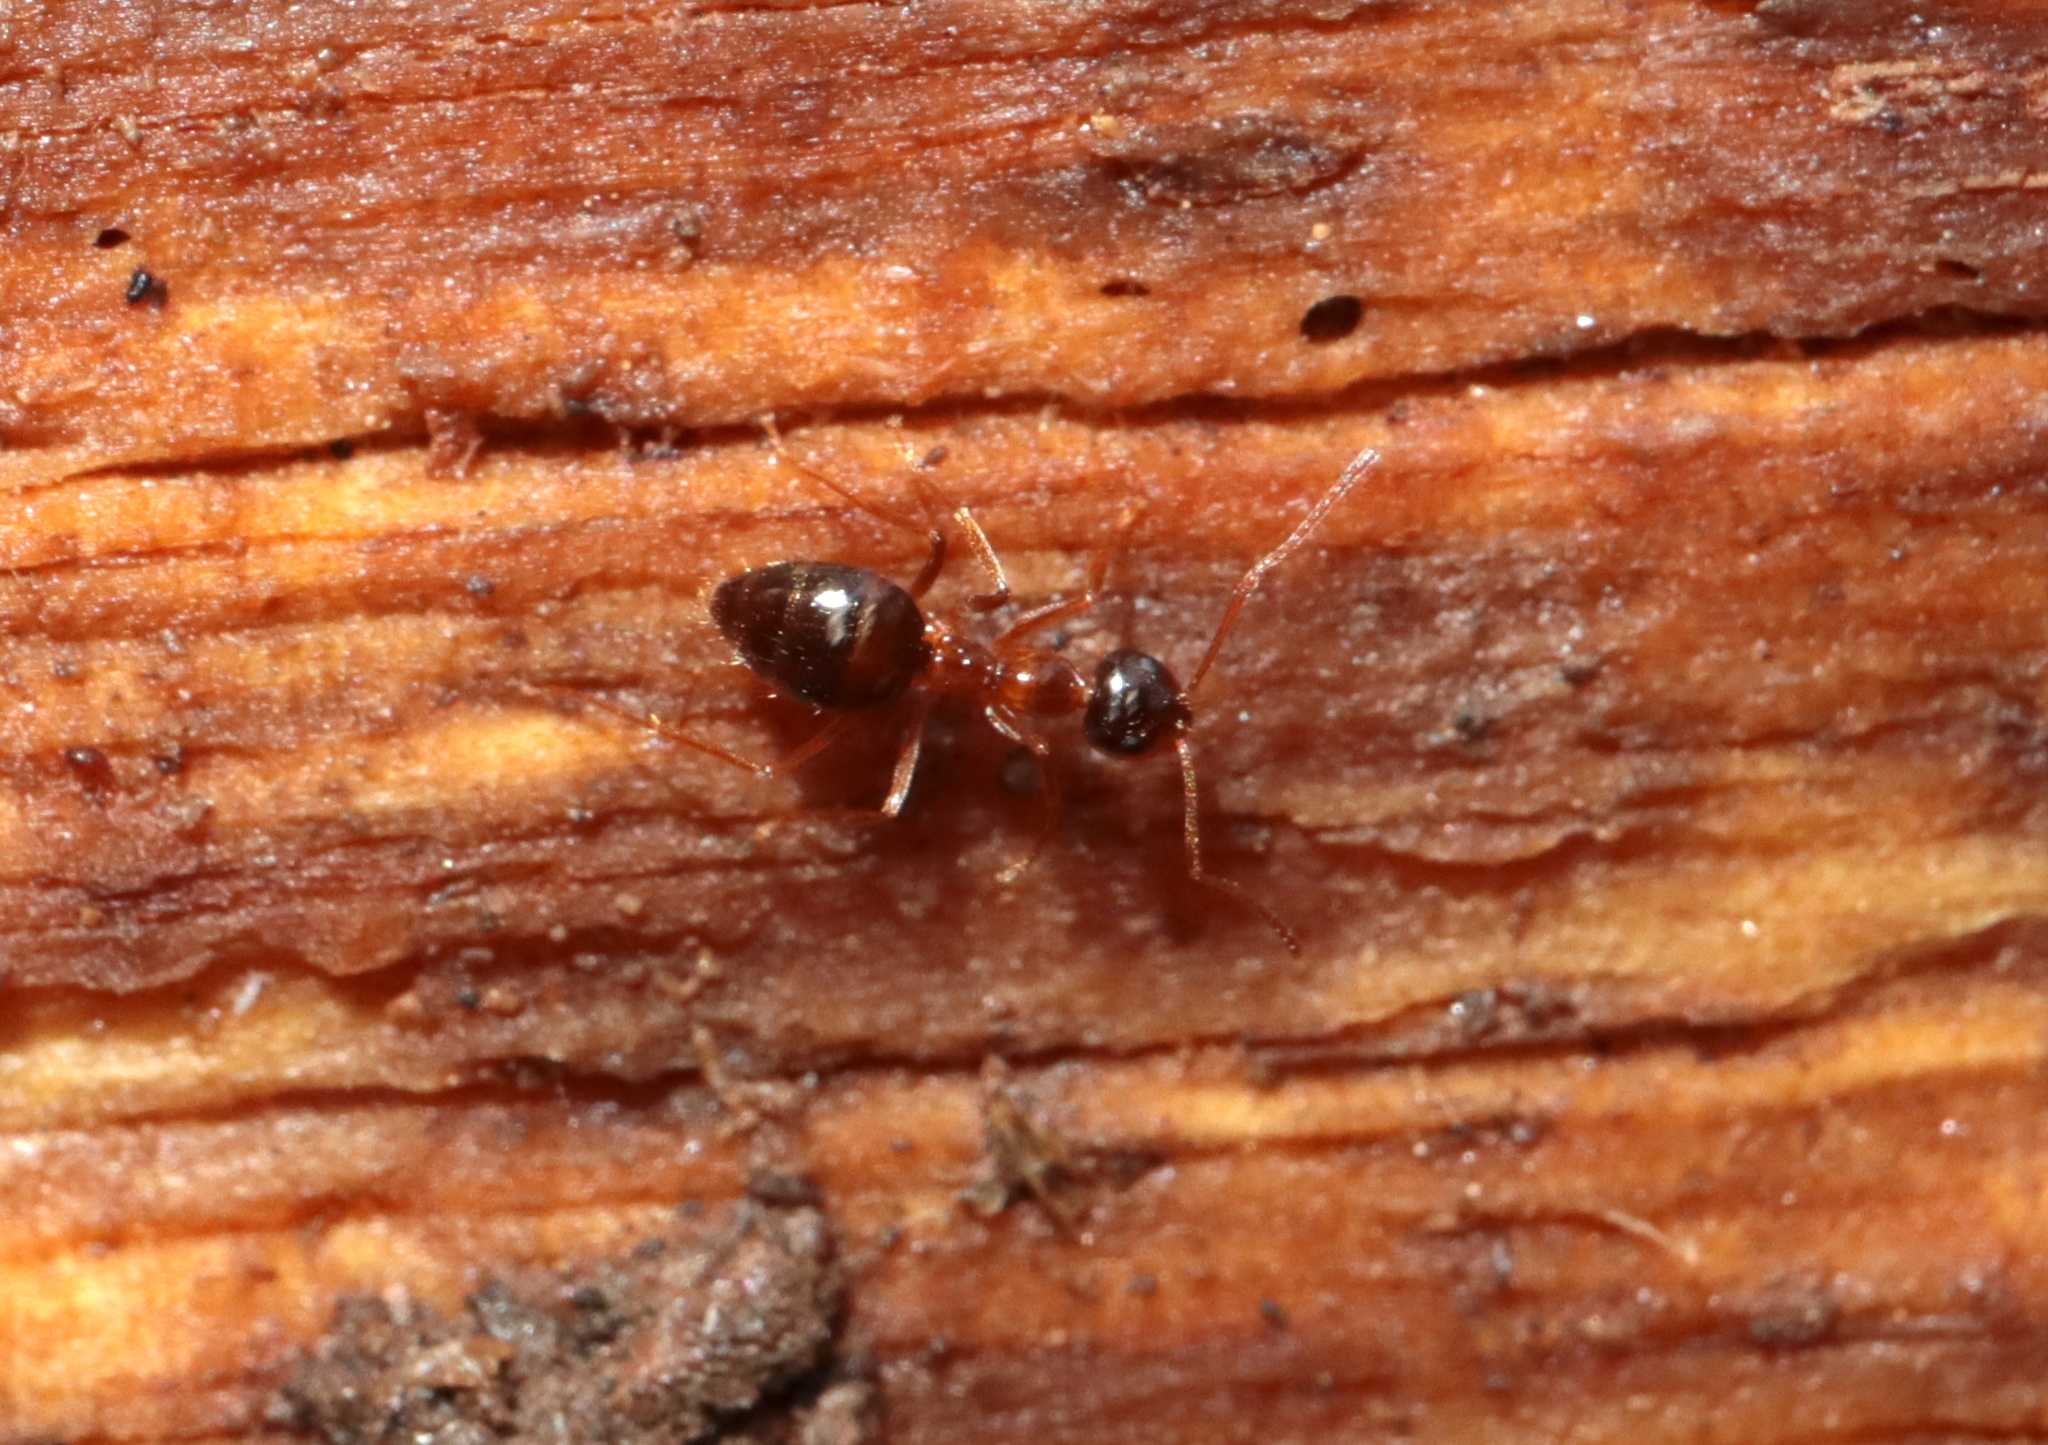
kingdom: Animalia
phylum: Arthropoda
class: Insecta
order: Hymenoptera
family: Formicidae
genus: Prenolepis
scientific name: Prenolepis imparis
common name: Small honey ant
